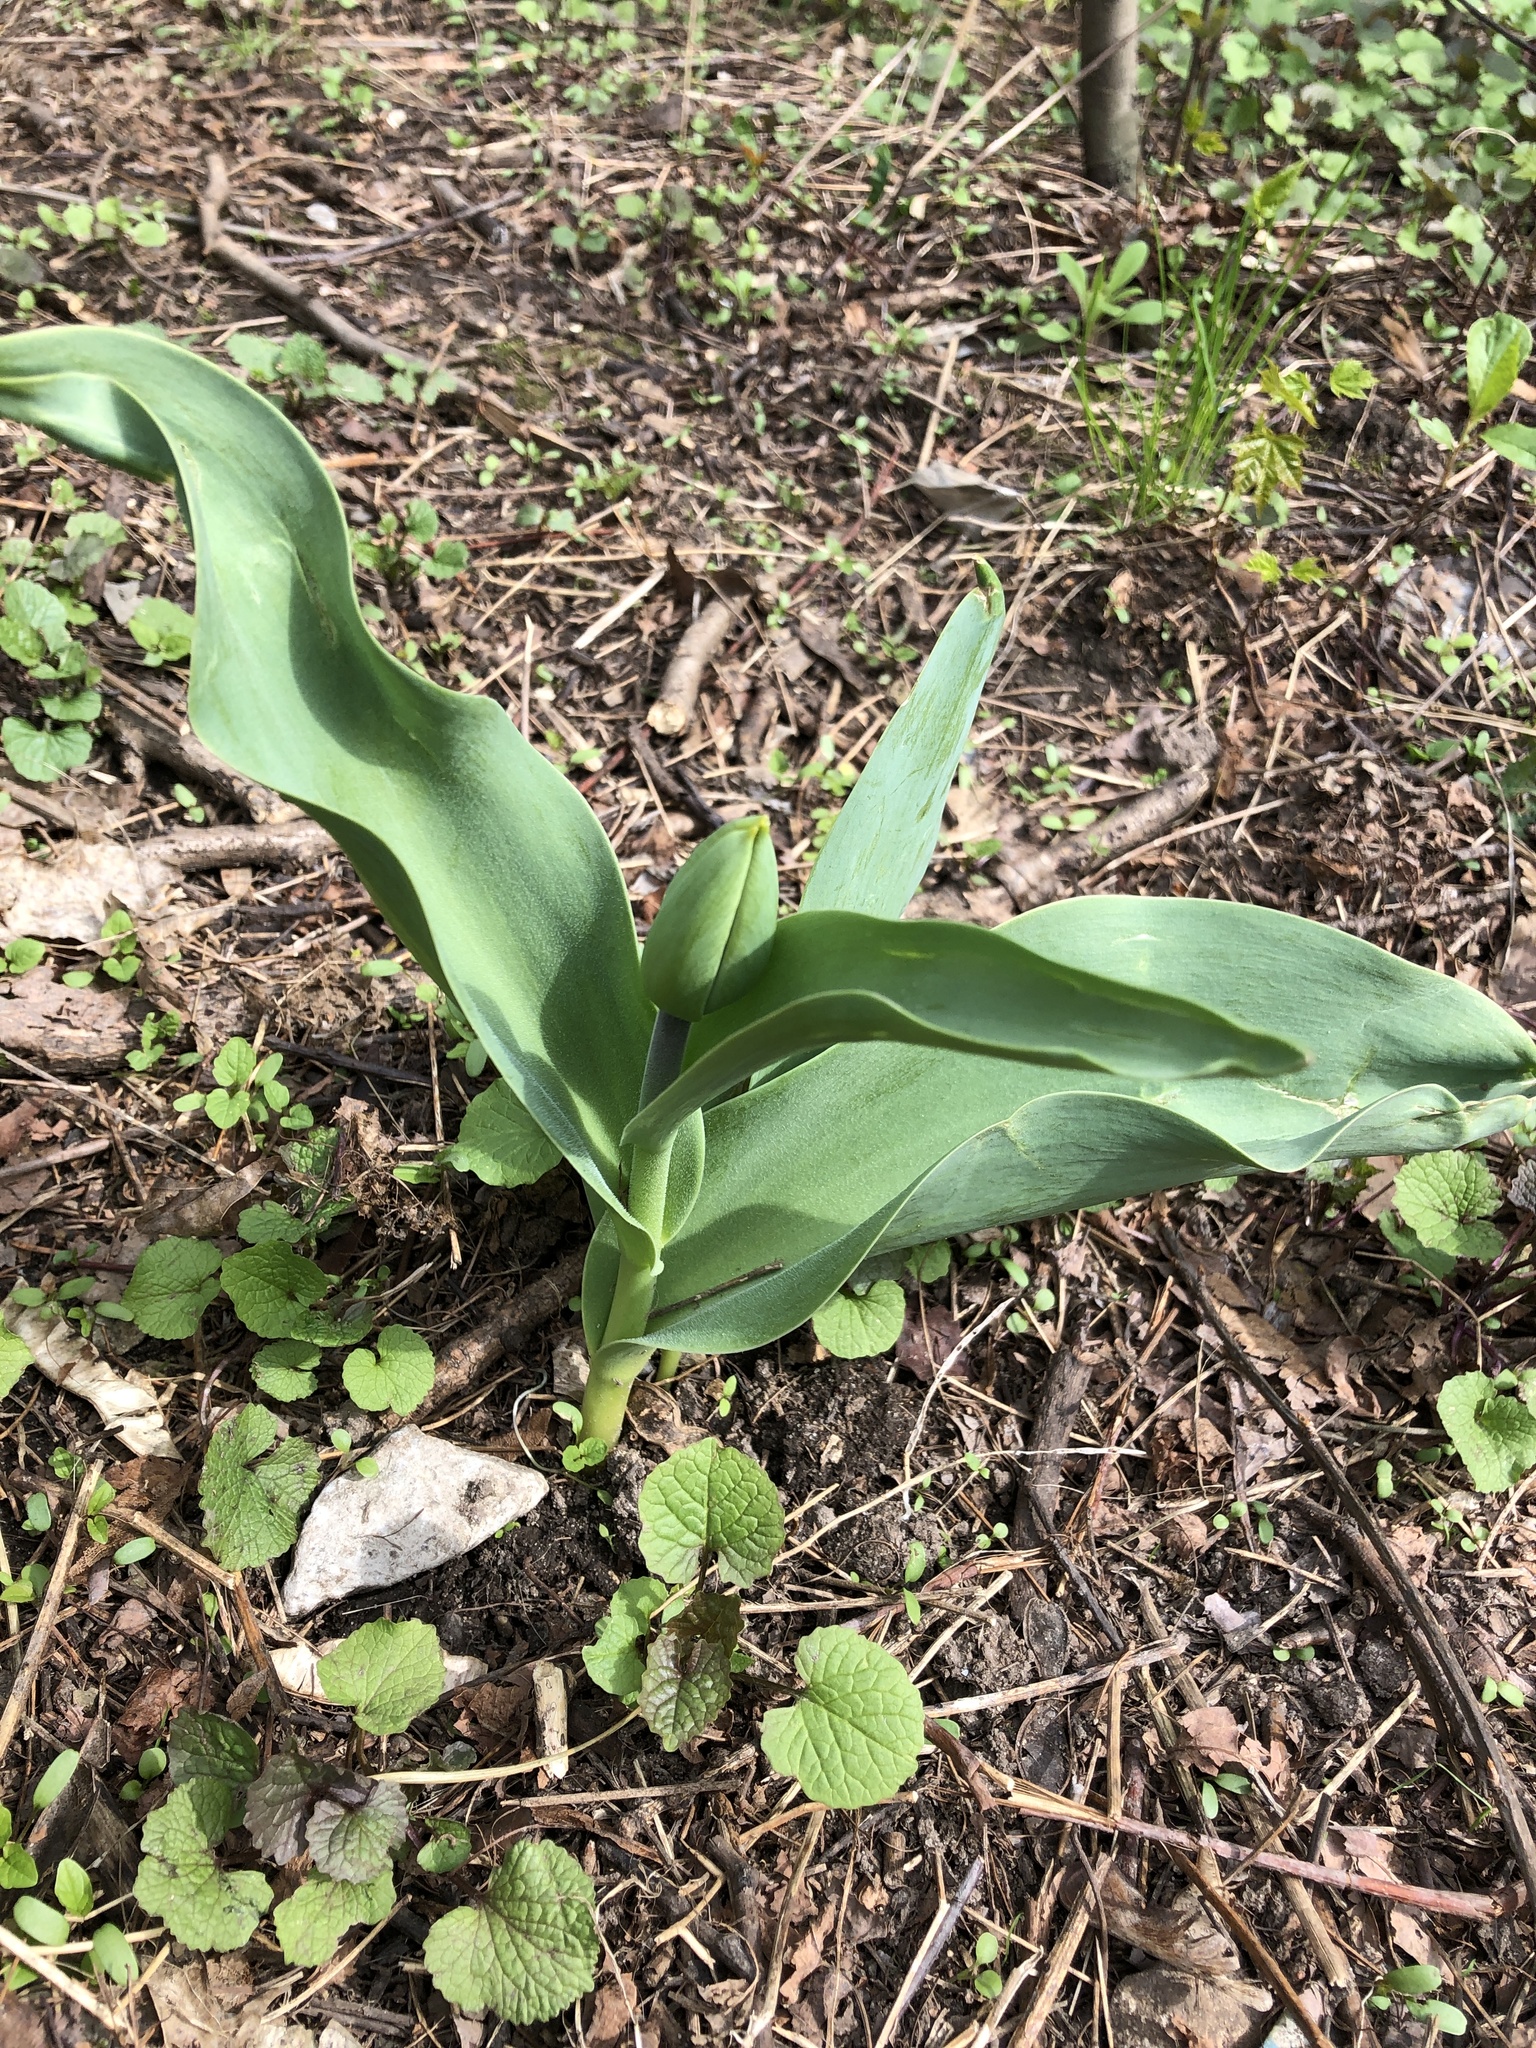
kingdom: Plantae
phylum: Tracheophyta
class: Liliopsida
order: Liliales
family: Liliaceae
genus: Tulipa
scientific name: Tulipa gesneriana
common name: Garden tulip
